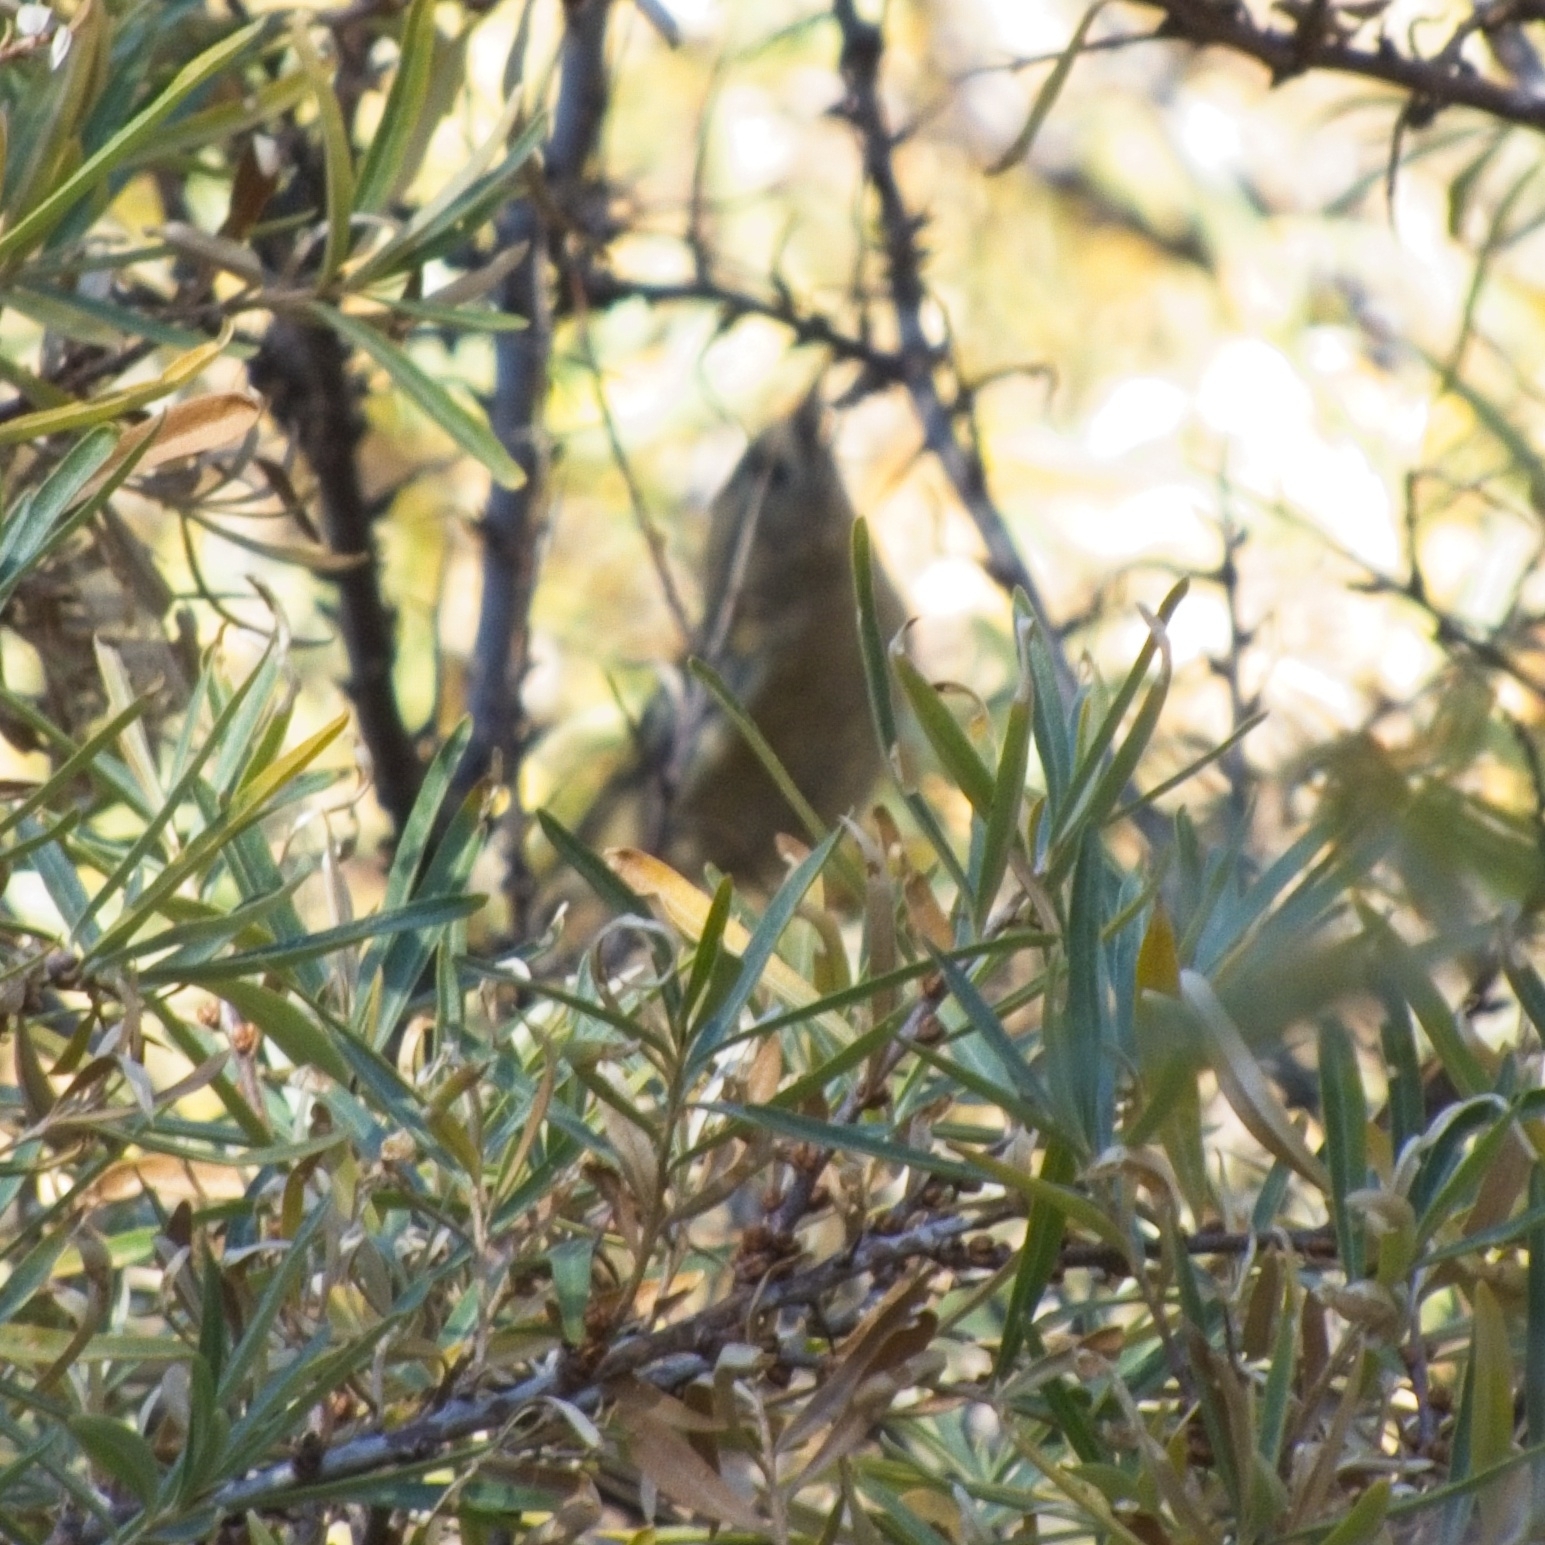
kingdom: Animalia
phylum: Chordata
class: Aves
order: Passeriformes
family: Regulidae
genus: Regulus
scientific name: Regulus regulus
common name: Goldcrest
